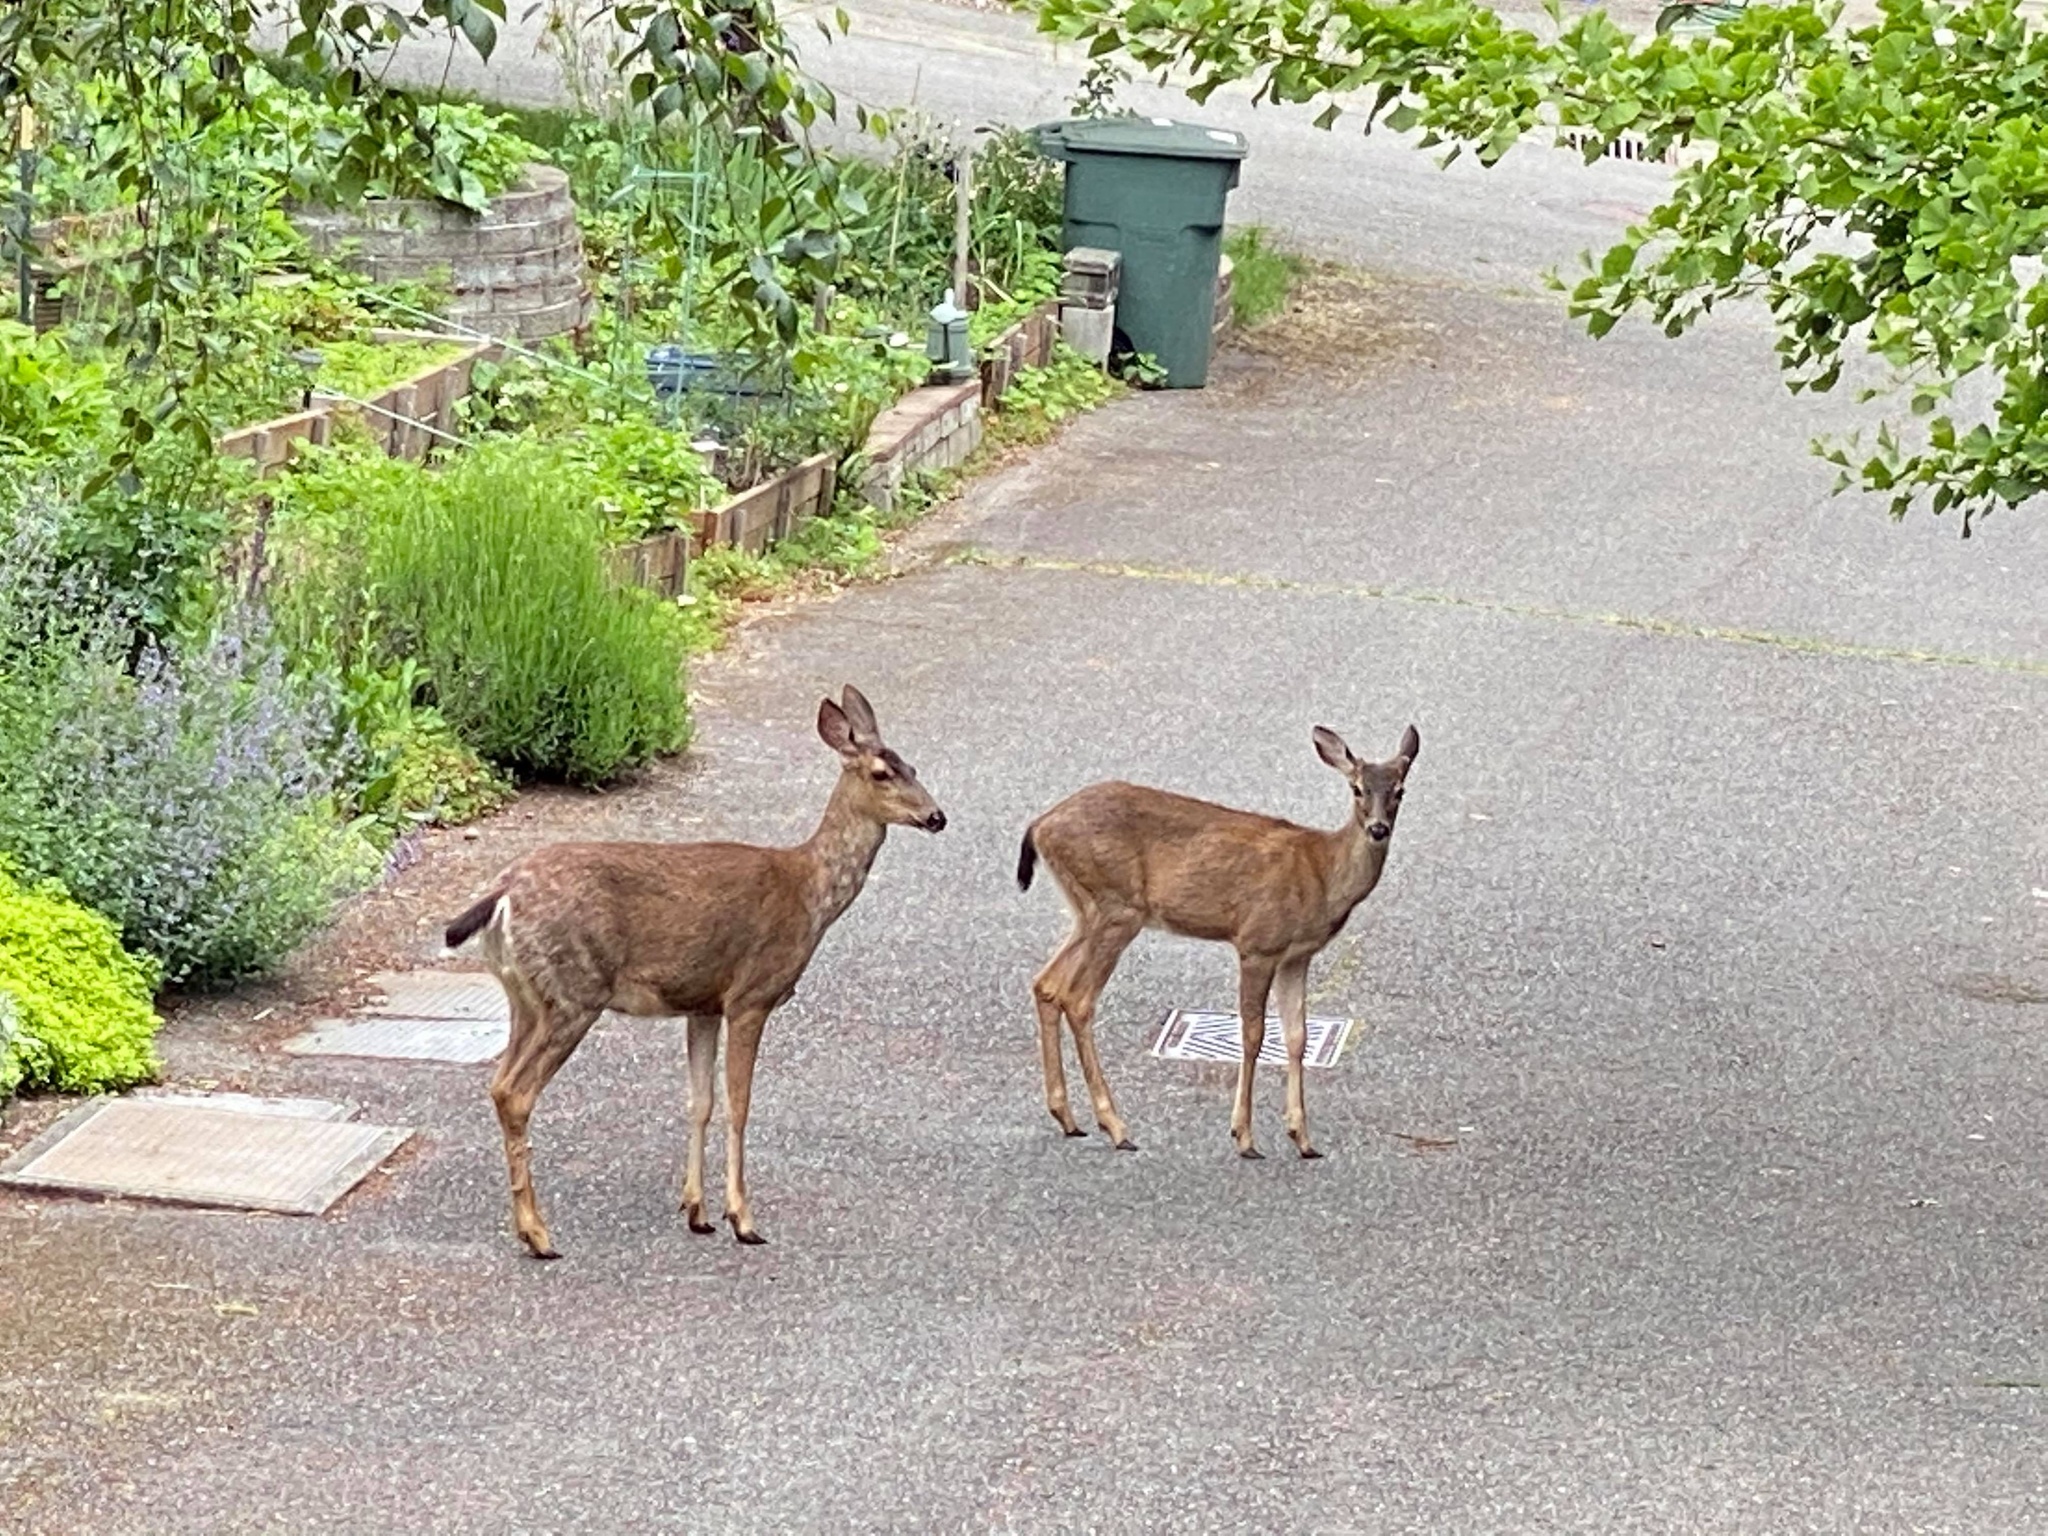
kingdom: Animalia
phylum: Chordata
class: Mammalia
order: Artiodactyla
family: Cervidae
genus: Odocoileus
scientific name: Odocoileus hemionus
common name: Mule deer
